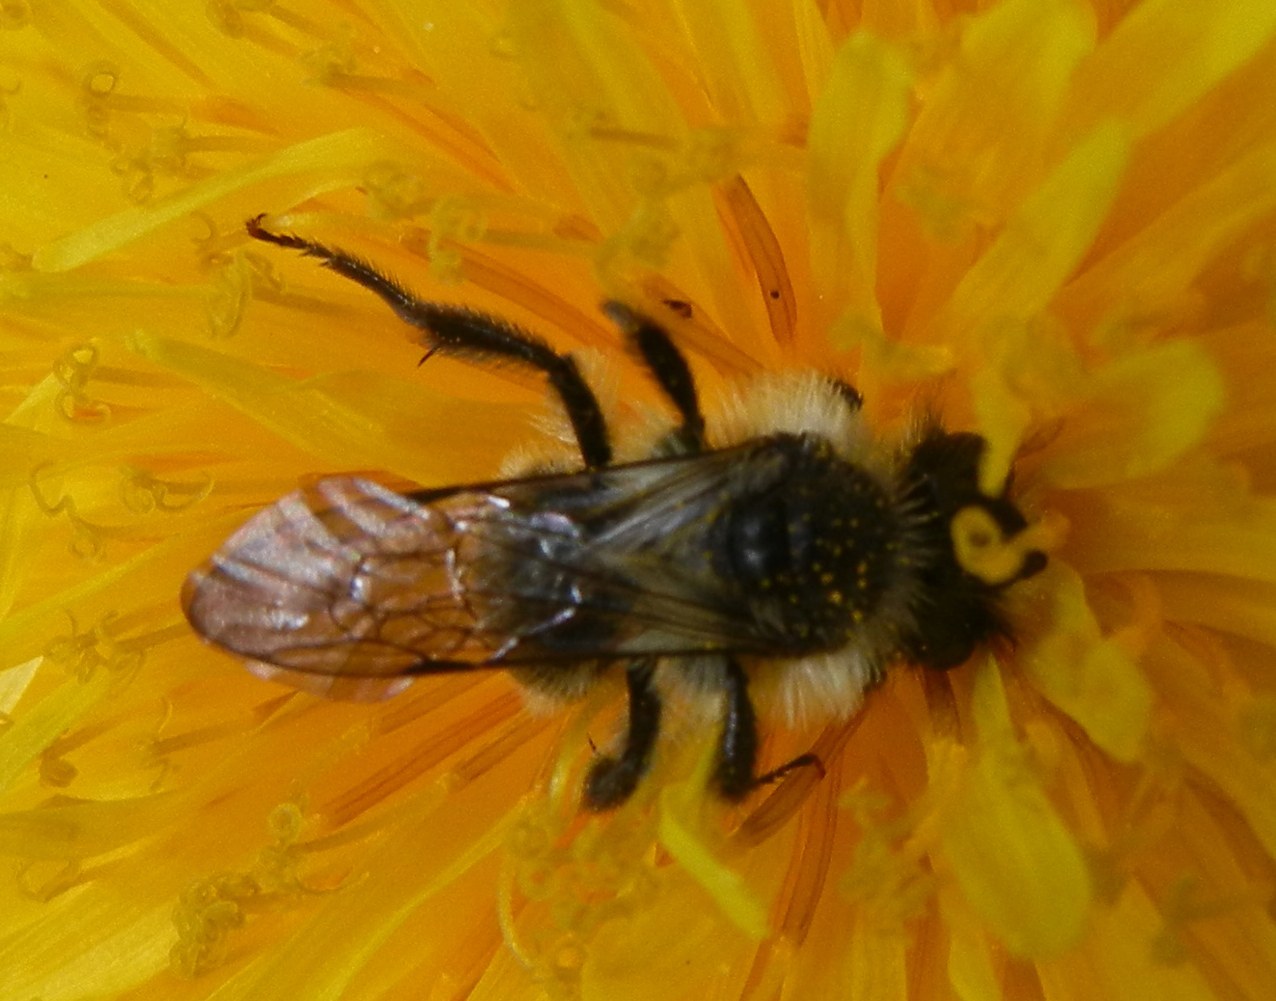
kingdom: Animalia
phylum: Arthropoda
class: Insecta
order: Hymenoptera
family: Andrenidae
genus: Andrena
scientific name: Andrena cineraria
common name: Ashy mining bee
